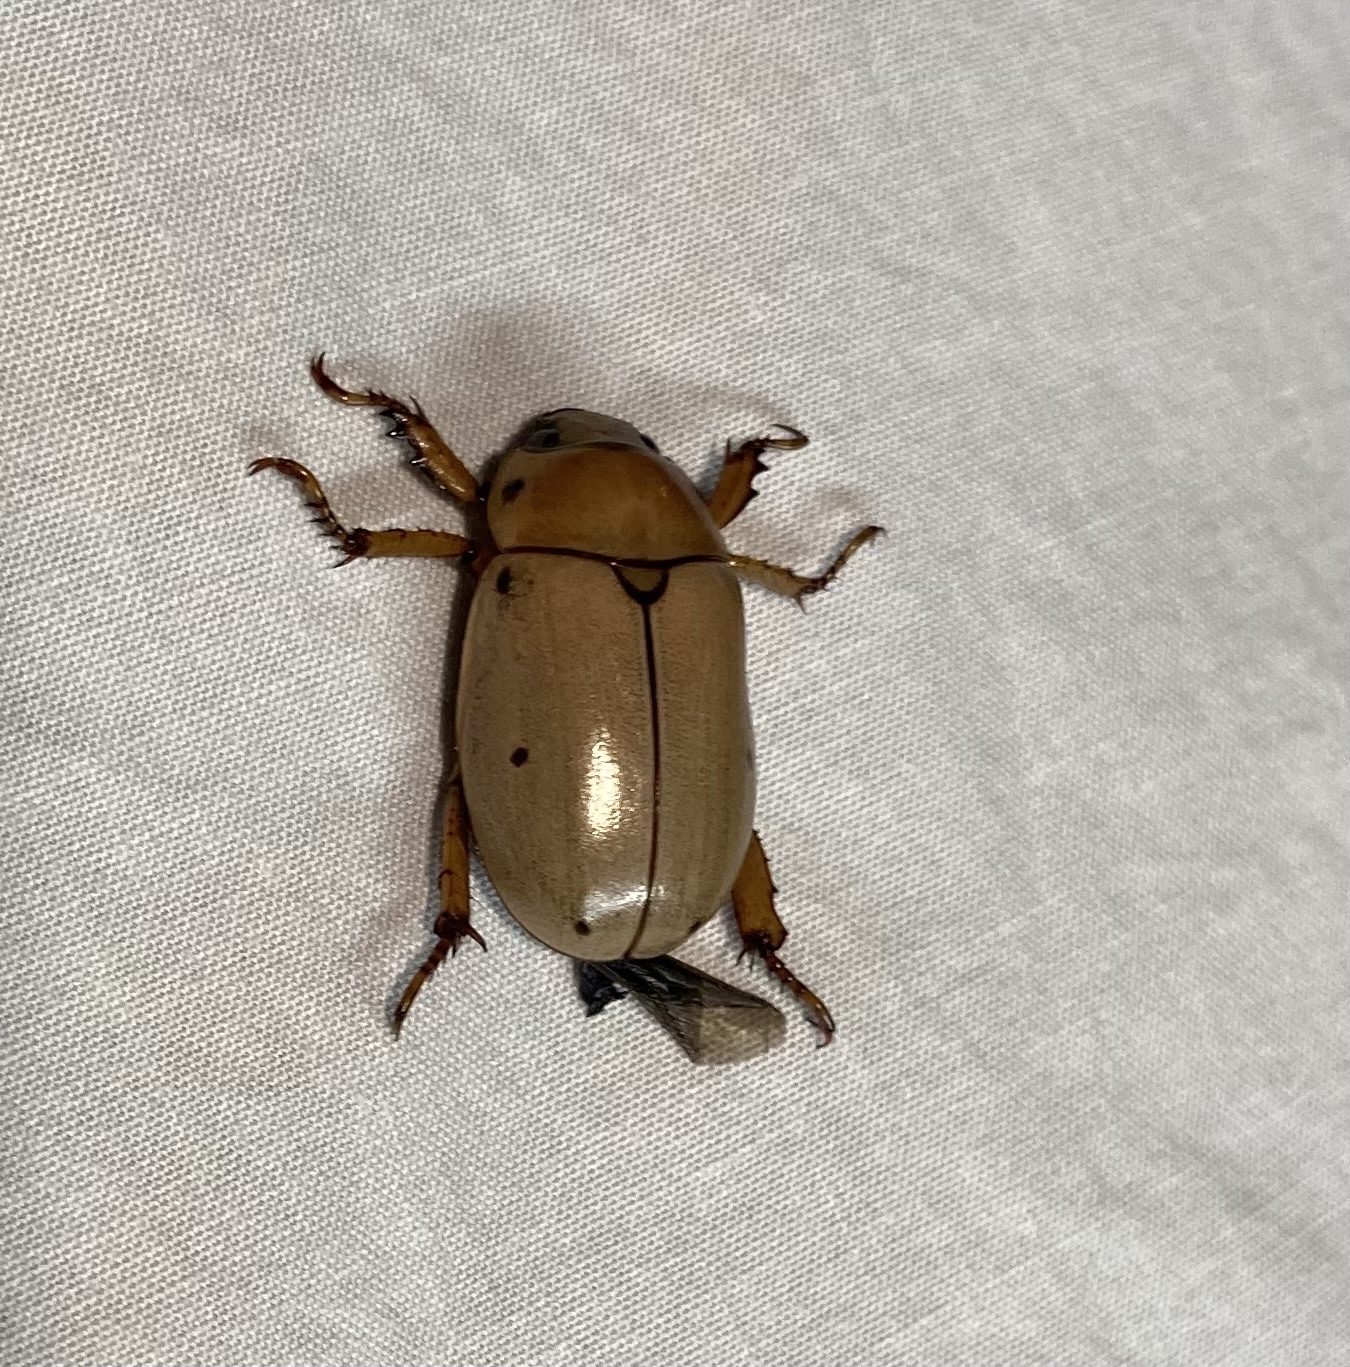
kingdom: Animalia
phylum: Arthropoda
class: Insecta
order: Coleoptera
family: Scarabaeidae
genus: Pelidnota
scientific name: Pelidnota punctata
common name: Grapevine beetle
